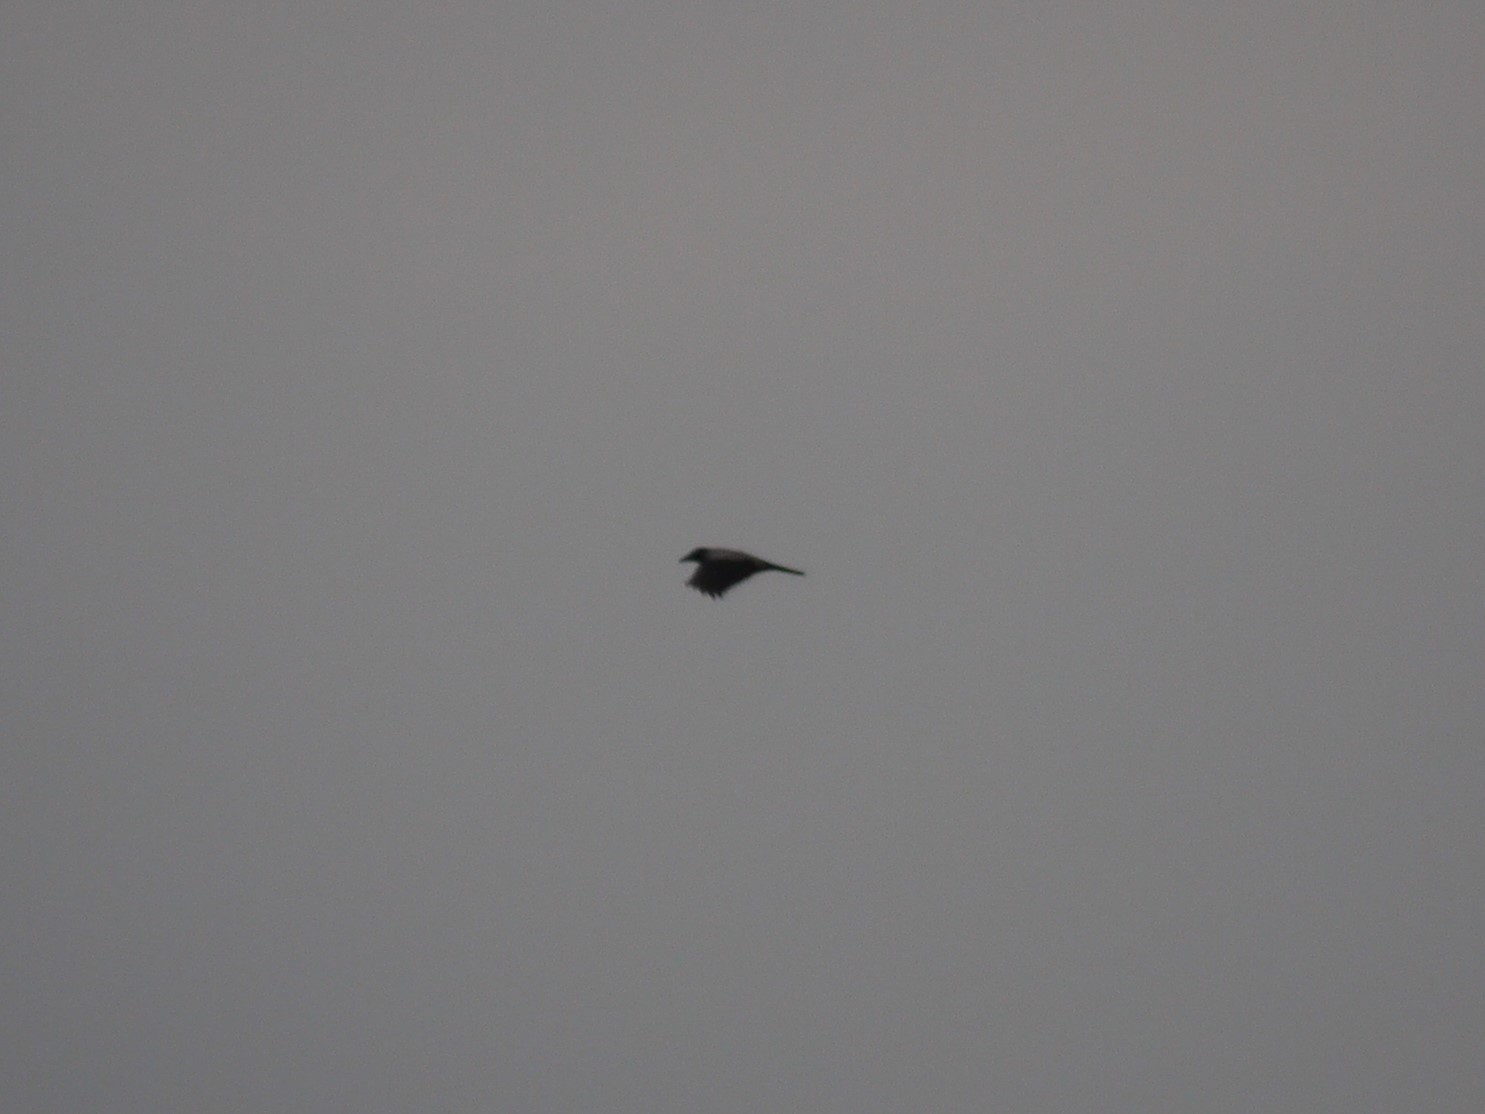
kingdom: Animalia
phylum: Chordata
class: Aves
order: Passeriformes
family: Corvidae
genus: Corvus
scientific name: Corvus cornix
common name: Hooded crow
